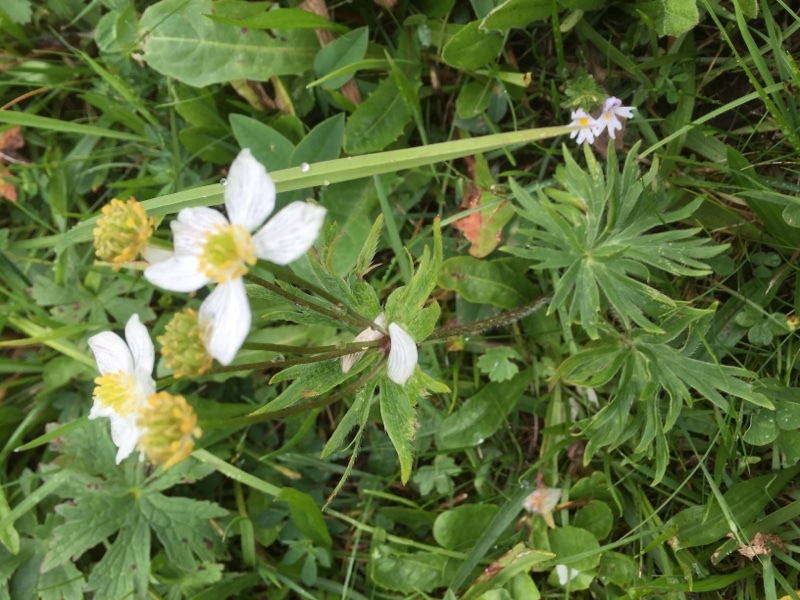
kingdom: Plantae
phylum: Tracheophyta
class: Magnoliopsida
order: Ranunculales
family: Ranunculaceae
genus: Anemonastrum
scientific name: Anemonastrum narcissiflorum
